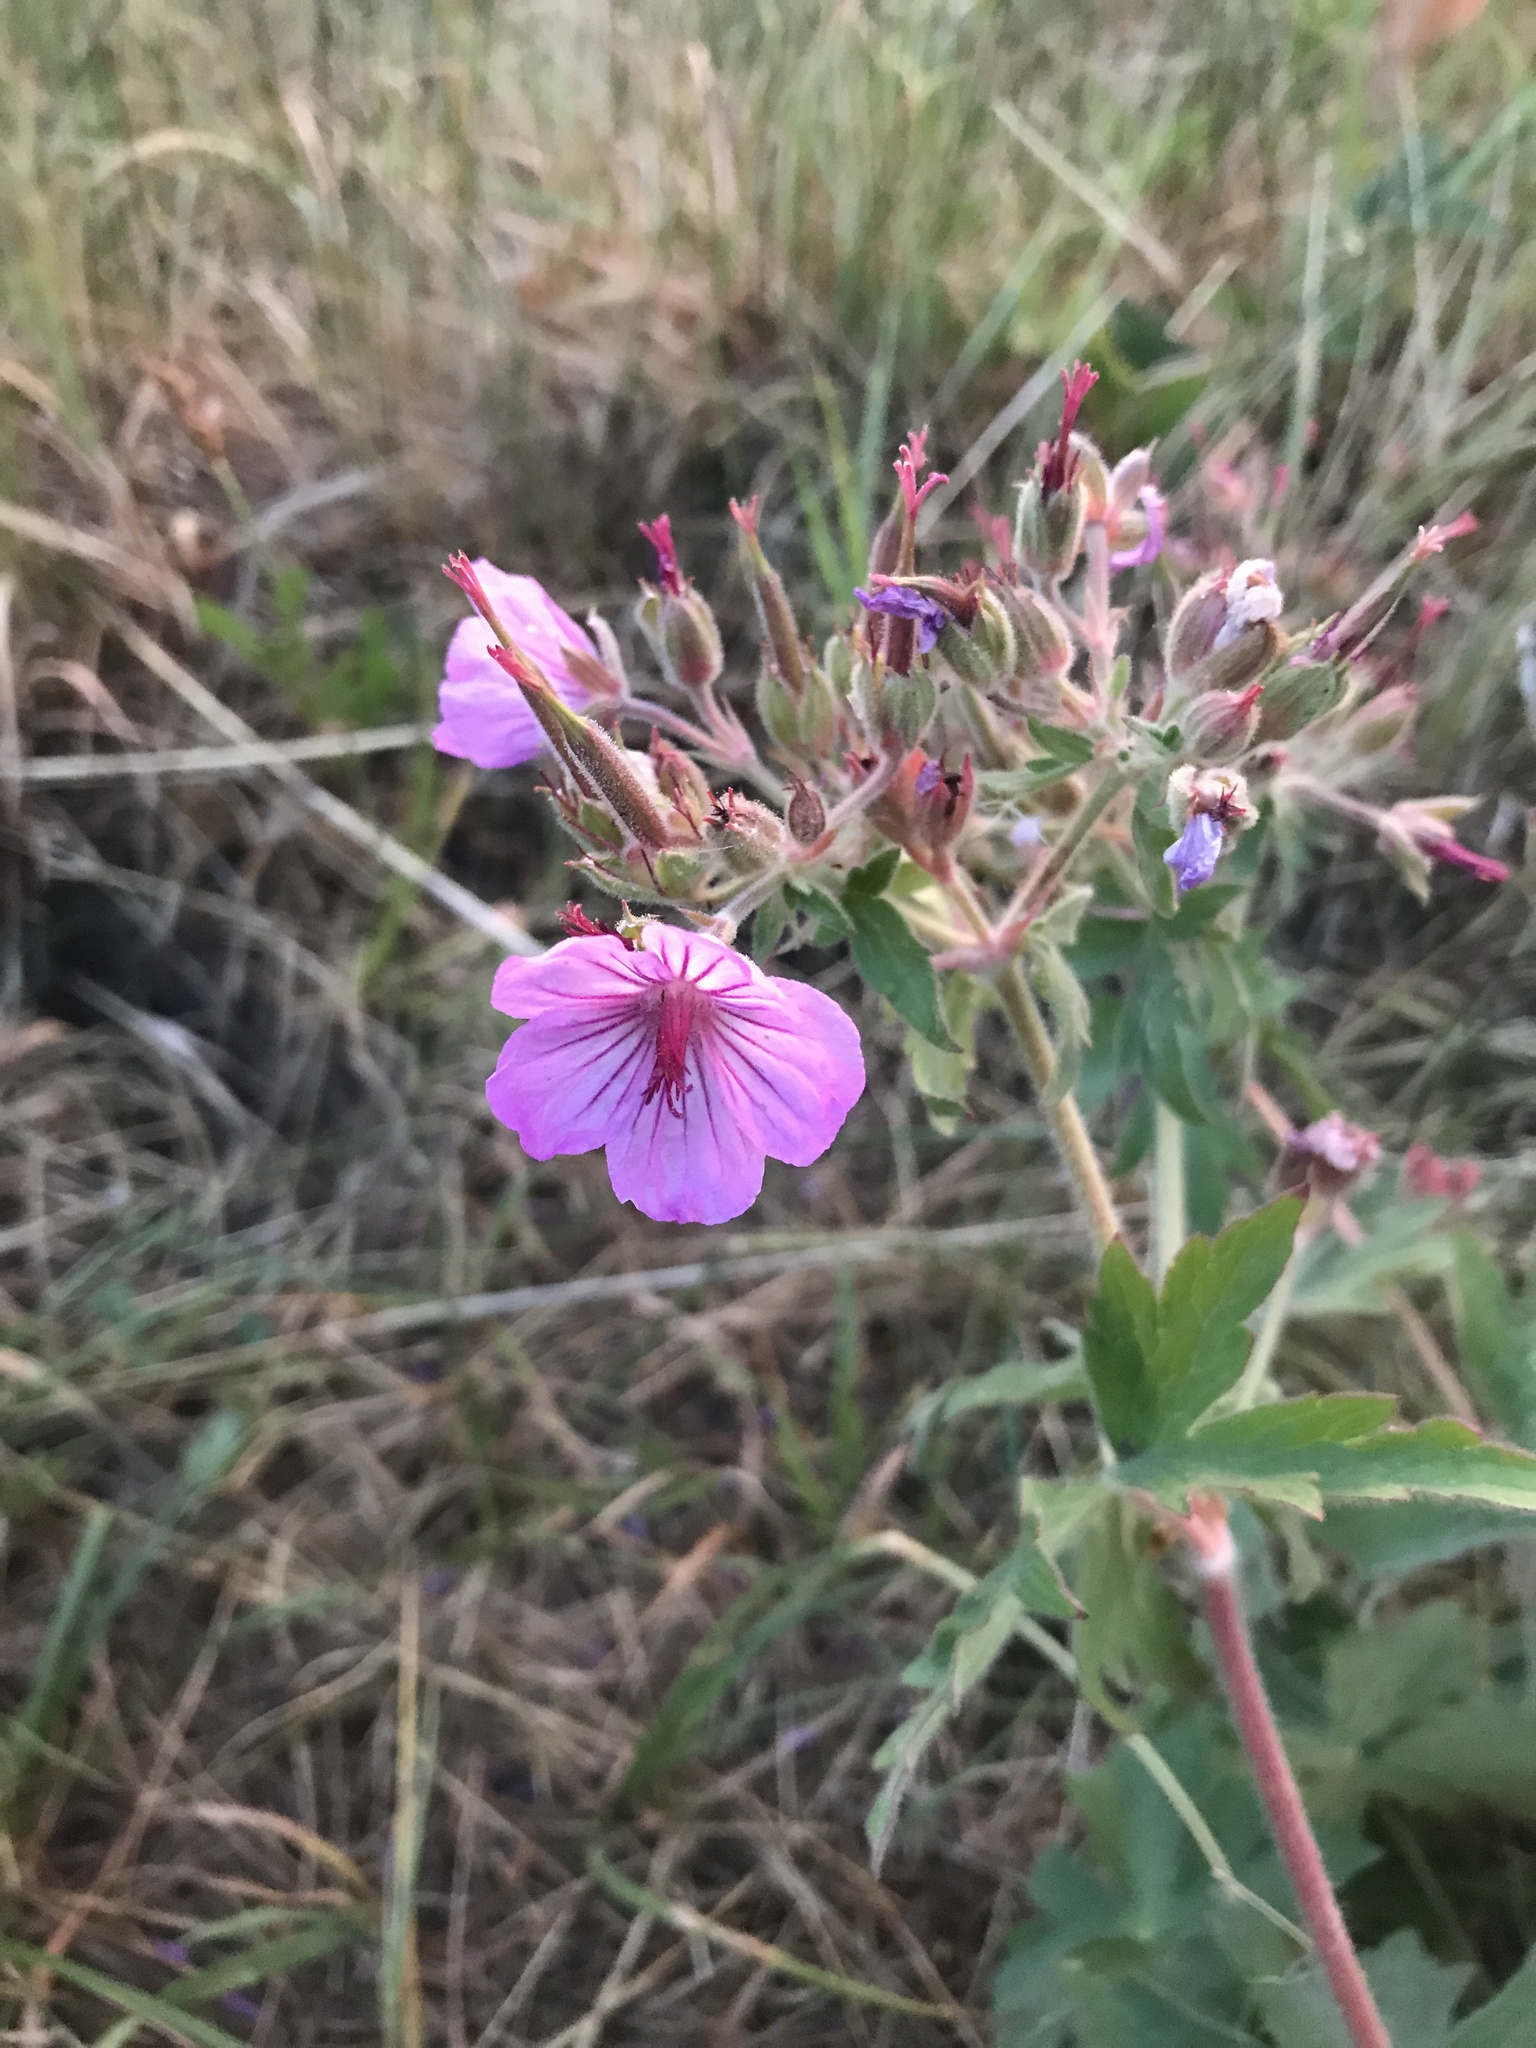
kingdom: Plantae
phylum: Tracheophyta
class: Magnoliopsida
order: Geraniales
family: Geraniaceae
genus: Geranium
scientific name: Geranium viscosissimum
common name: Purple geranium
